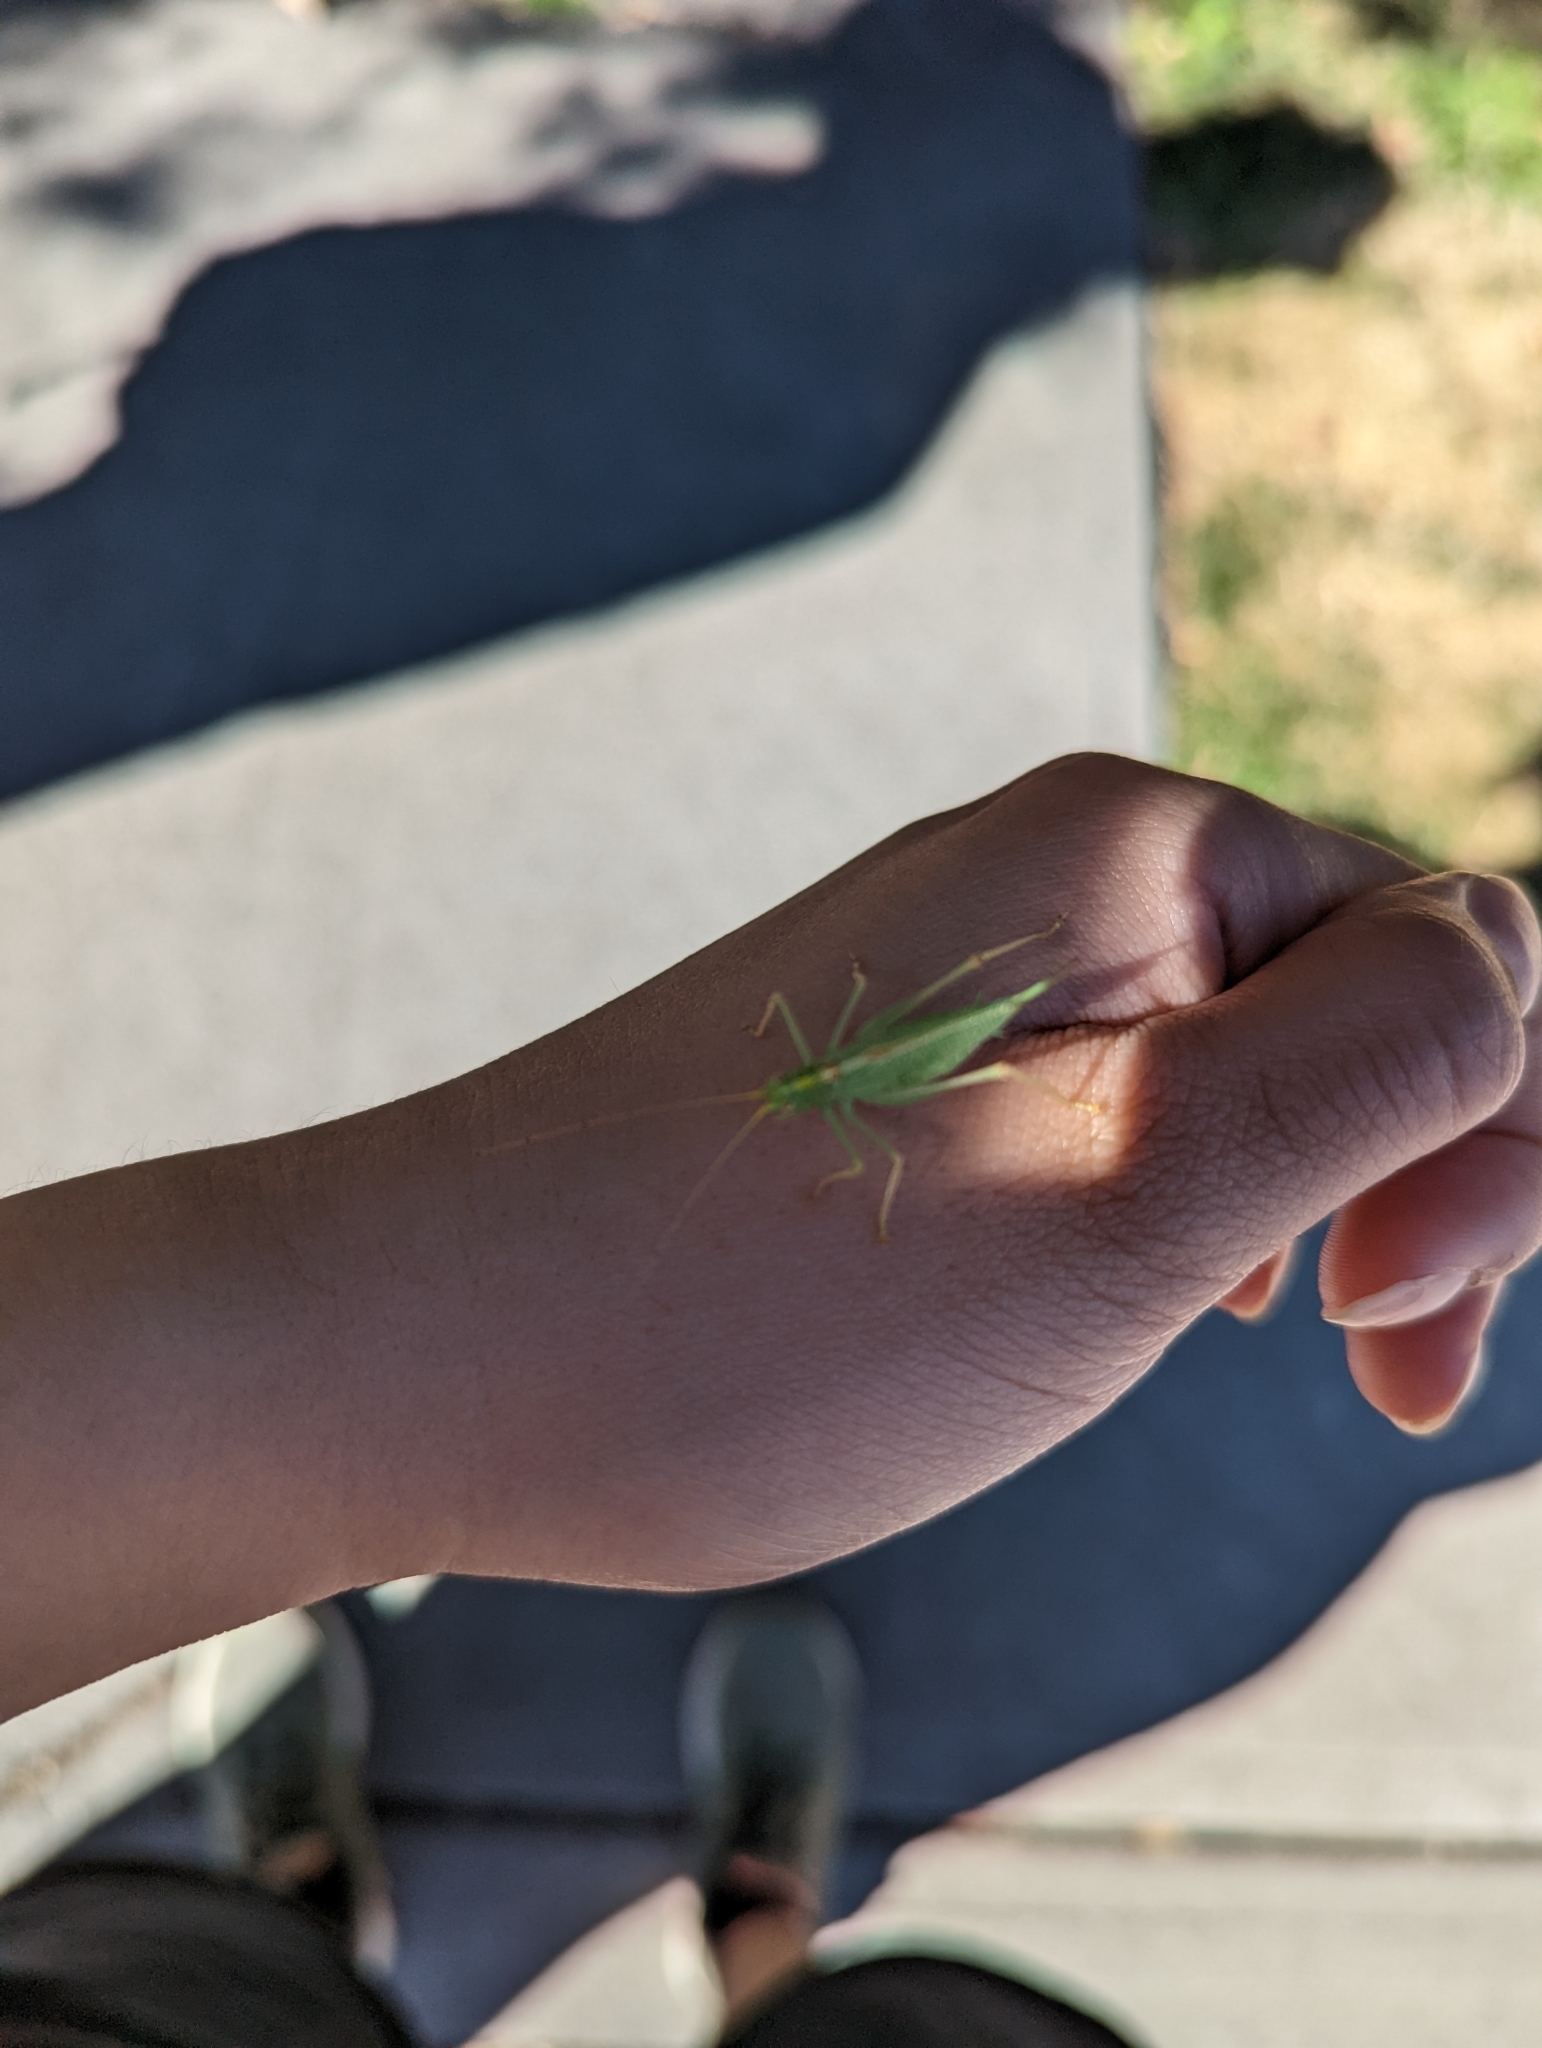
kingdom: Animalia
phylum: Arthropoda
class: Insecta
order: Orthoptera
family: Tettigoniidae
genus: Meconema
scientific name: Meconema thalassinum
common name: Oak bush-cricket
